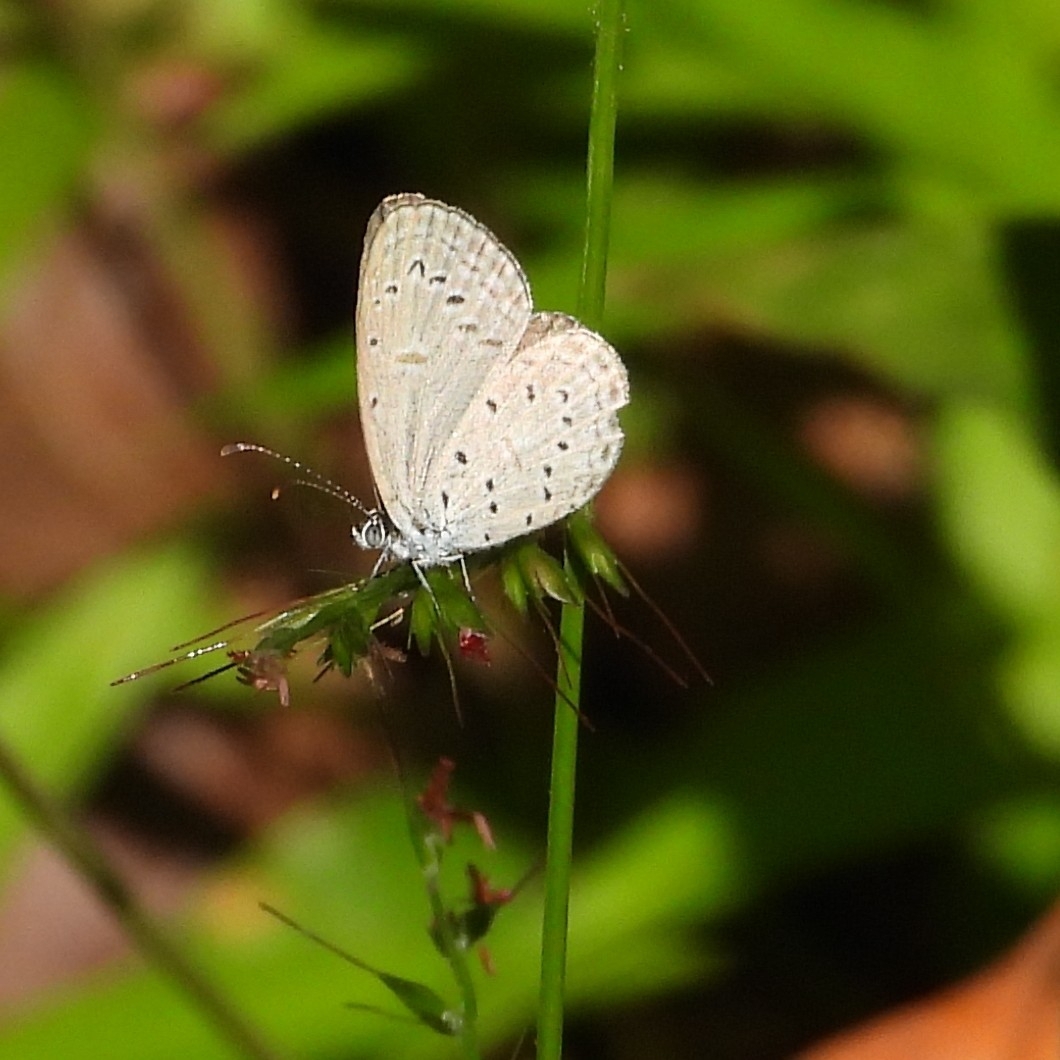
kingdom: Animalia
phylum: Arthropoda
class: Insecta
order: Lepidoptera
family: Lycaenidae
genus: Zizula
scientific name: Zizula hylax
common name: Gaika blue
